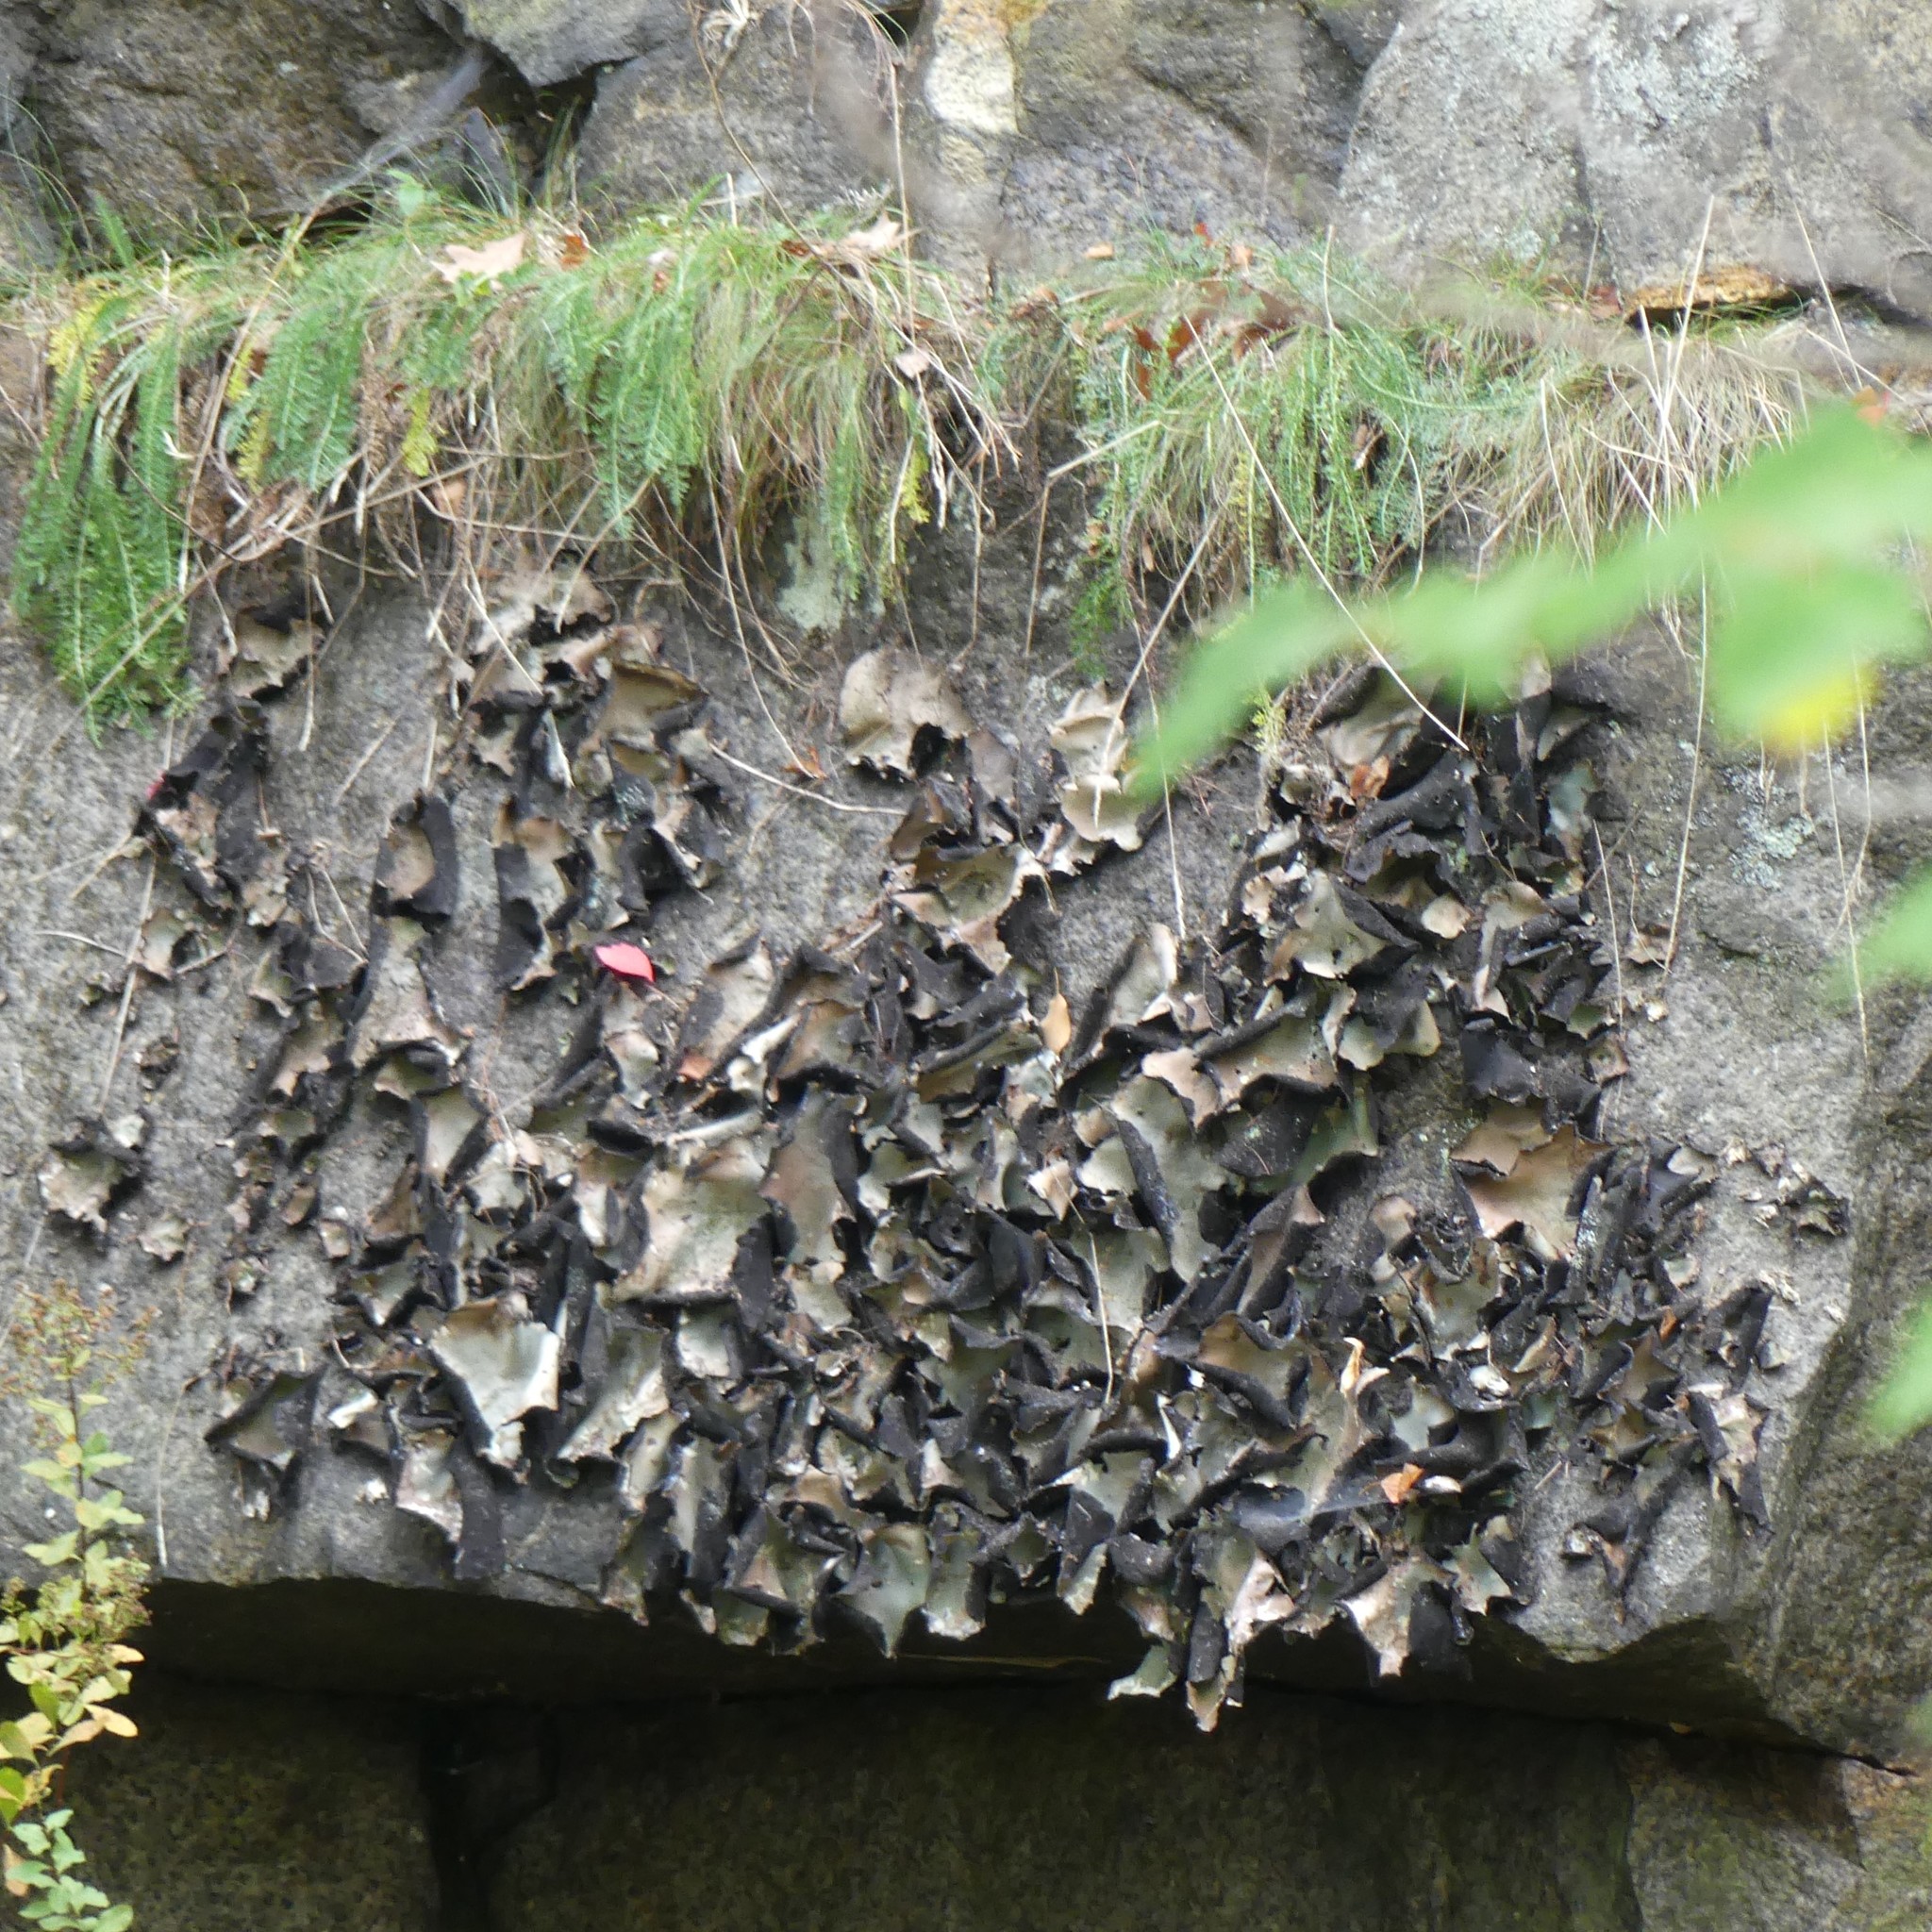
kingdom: Fungi
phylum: Ascomycota
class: Lecanoromycetes
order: Umbilicariales
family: Umbilicariaceae
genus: Umbilicaria
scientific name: Umbilicaria mammulata
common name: Smooth rock tripe
